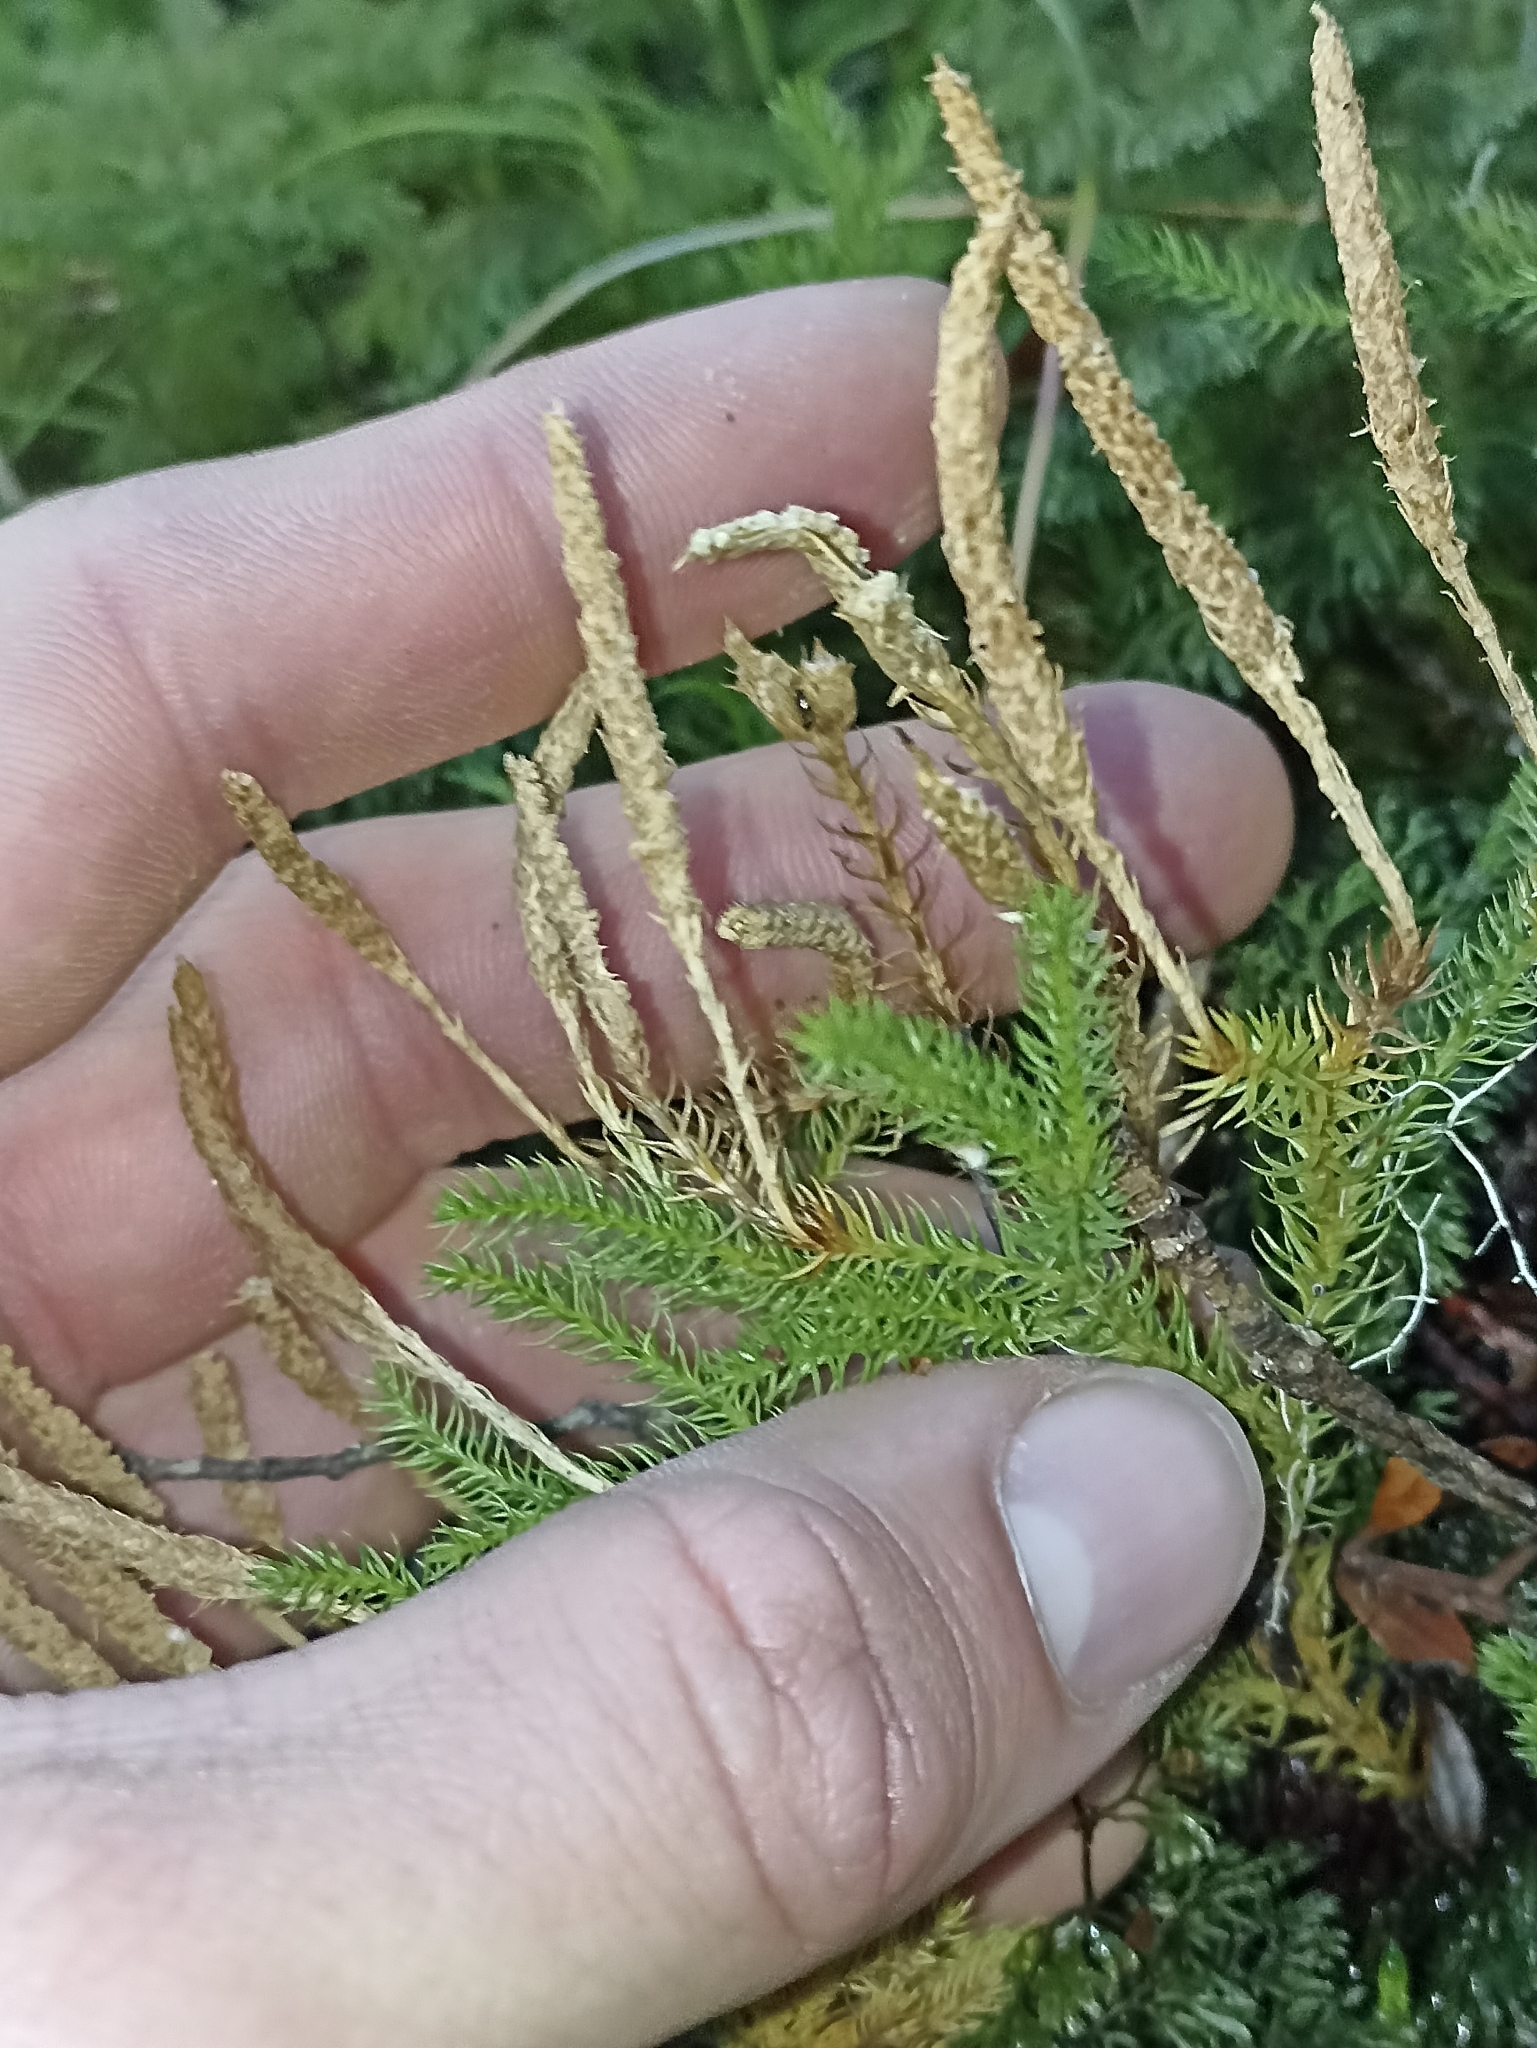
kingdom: Plantae
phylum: Tracheophyta
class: Lycopodiopsida
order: Lycopodiales
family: Lycopodiaceae
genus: Austrolycopodium
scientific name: Austrolycopodium fastigiatum
